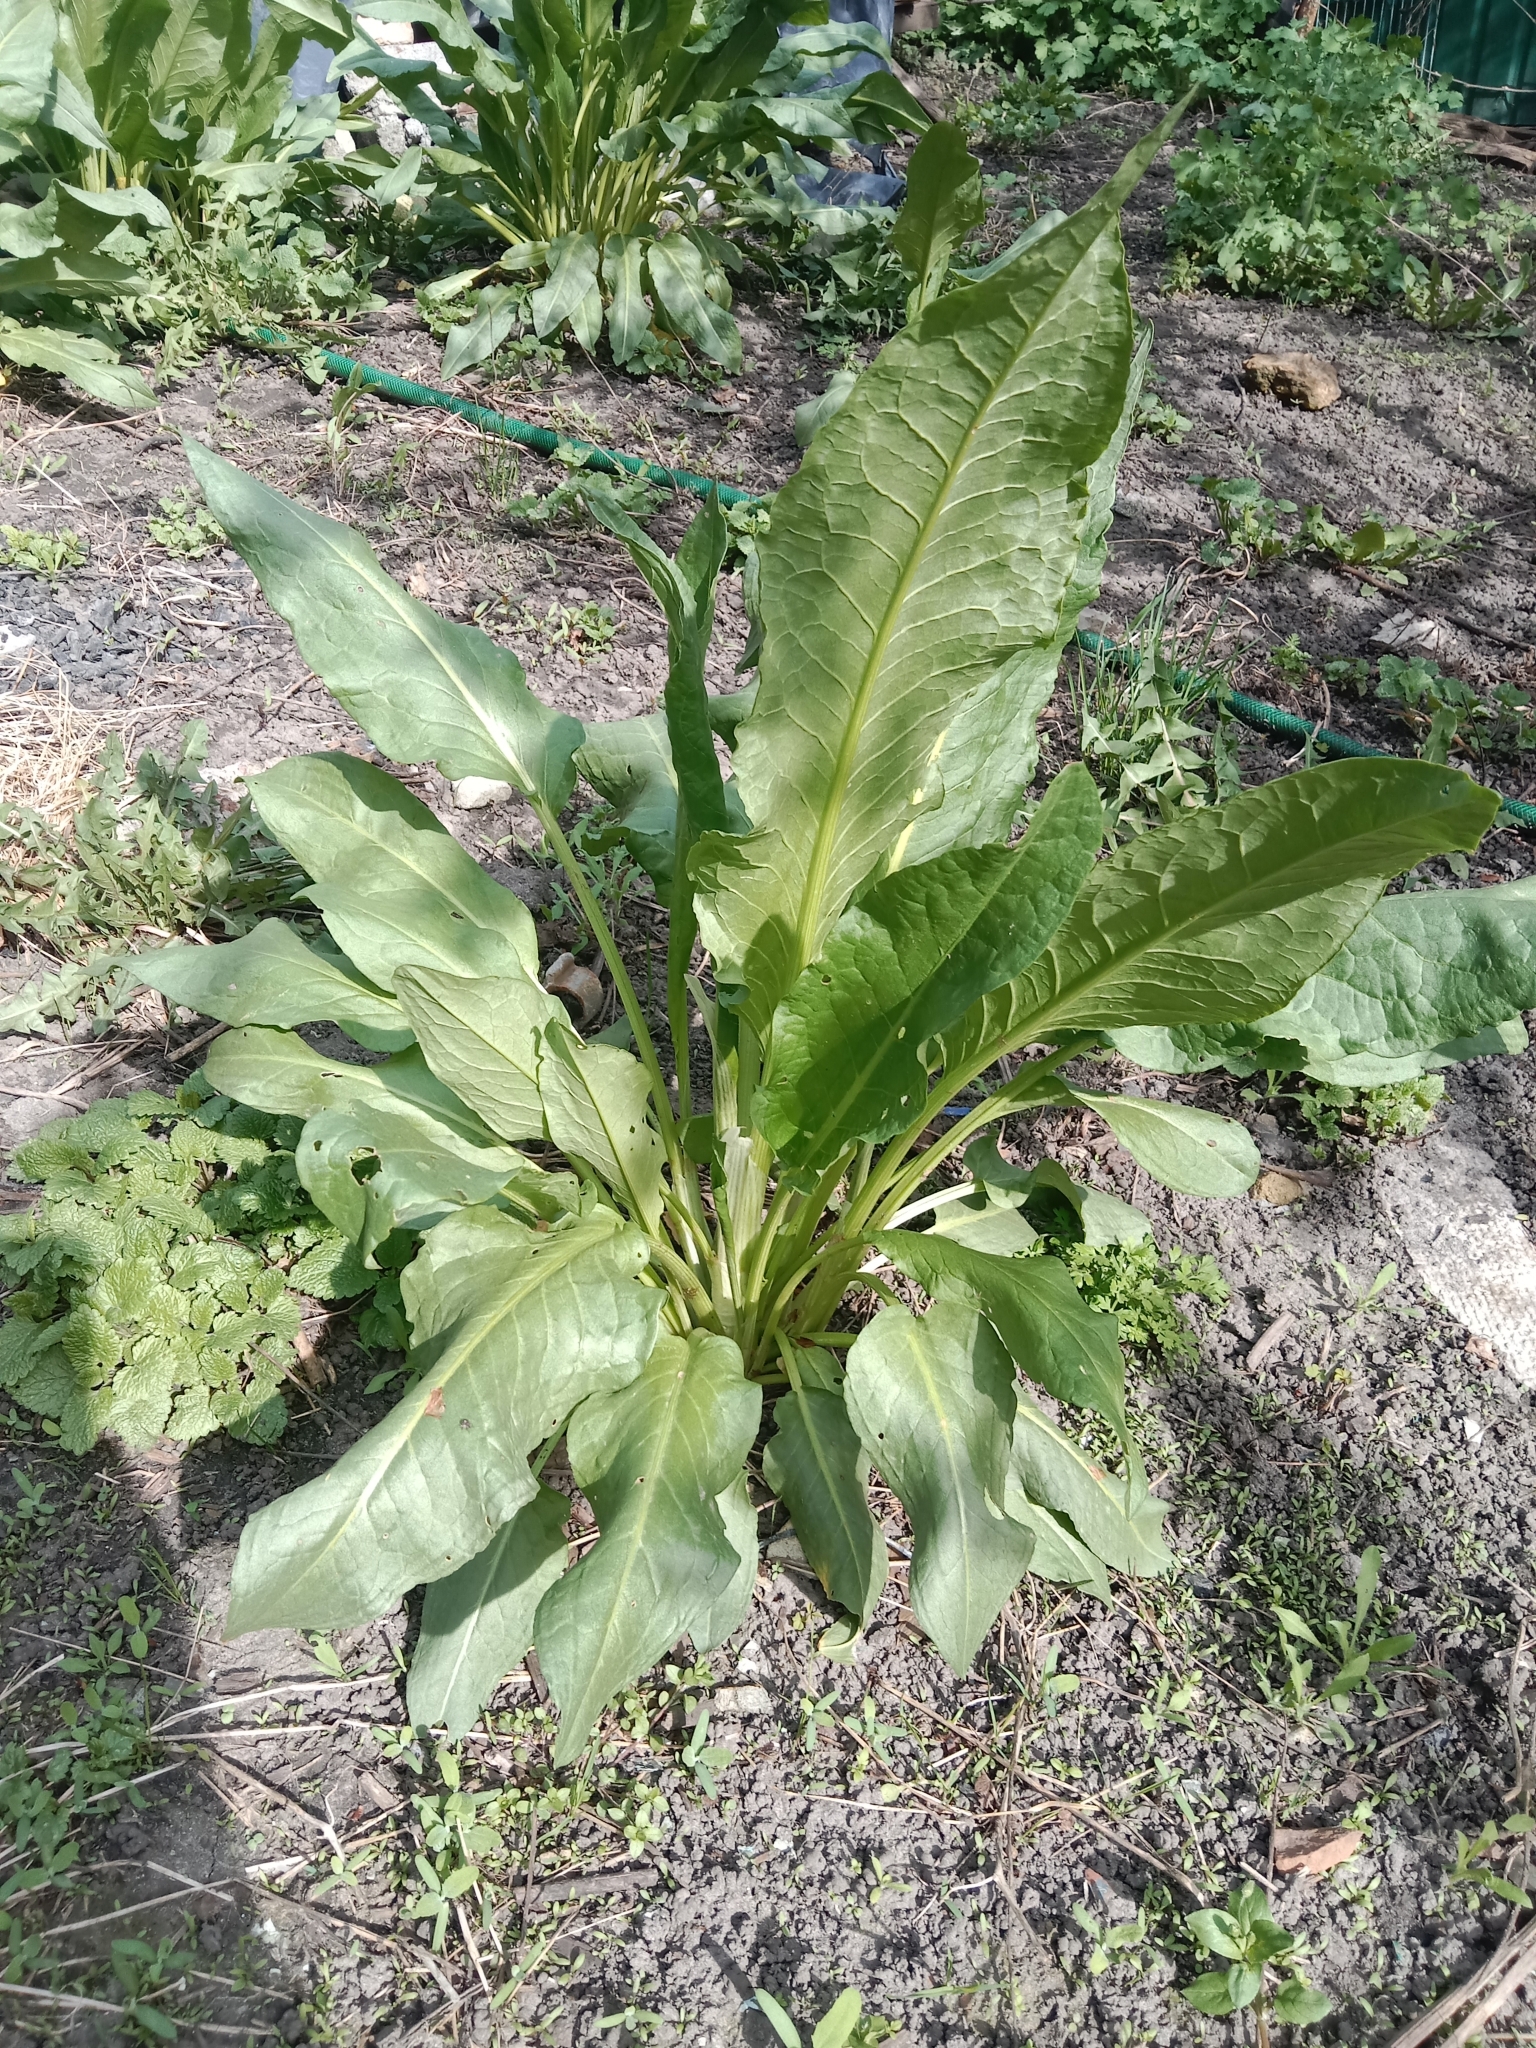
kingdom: Plantae
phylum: Tracheophyta
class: Magnoliopsida
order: Caryophyllales
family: Polygonaceae
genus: Rumex
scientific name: Rumex patientia
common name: Patience dock
